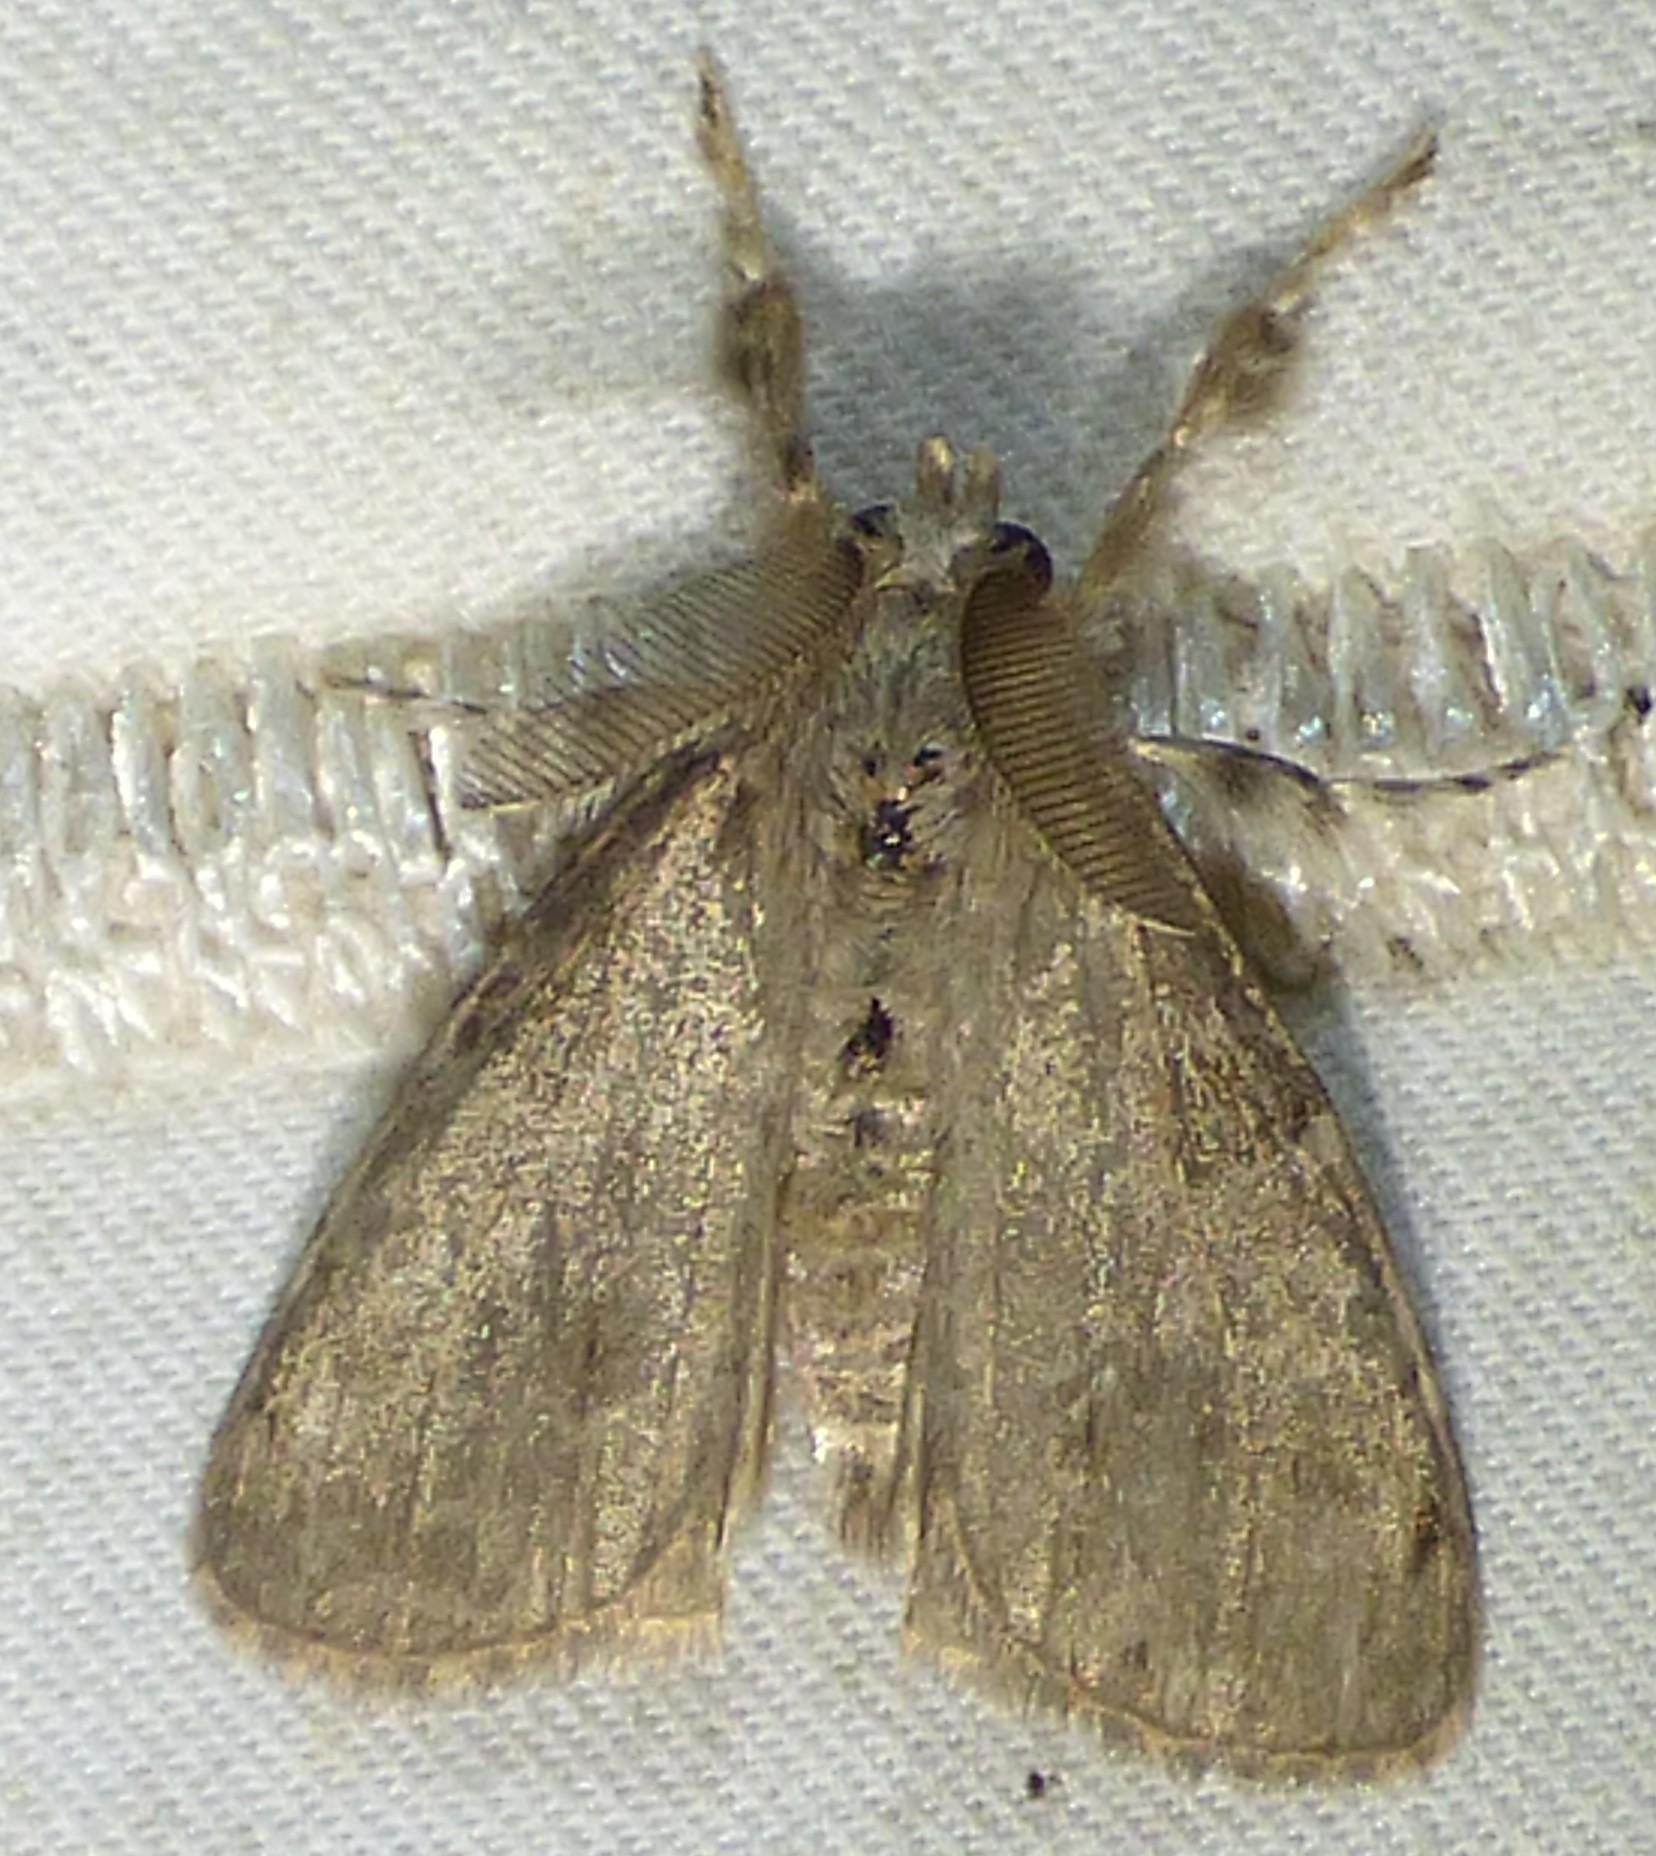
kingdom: Animalia
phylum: Arthropoda
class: Insecta
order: Lepidoptera
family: Erebidae
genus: Orgyia
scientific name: Orgyia leucostigma
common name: White-marked tussock moth
